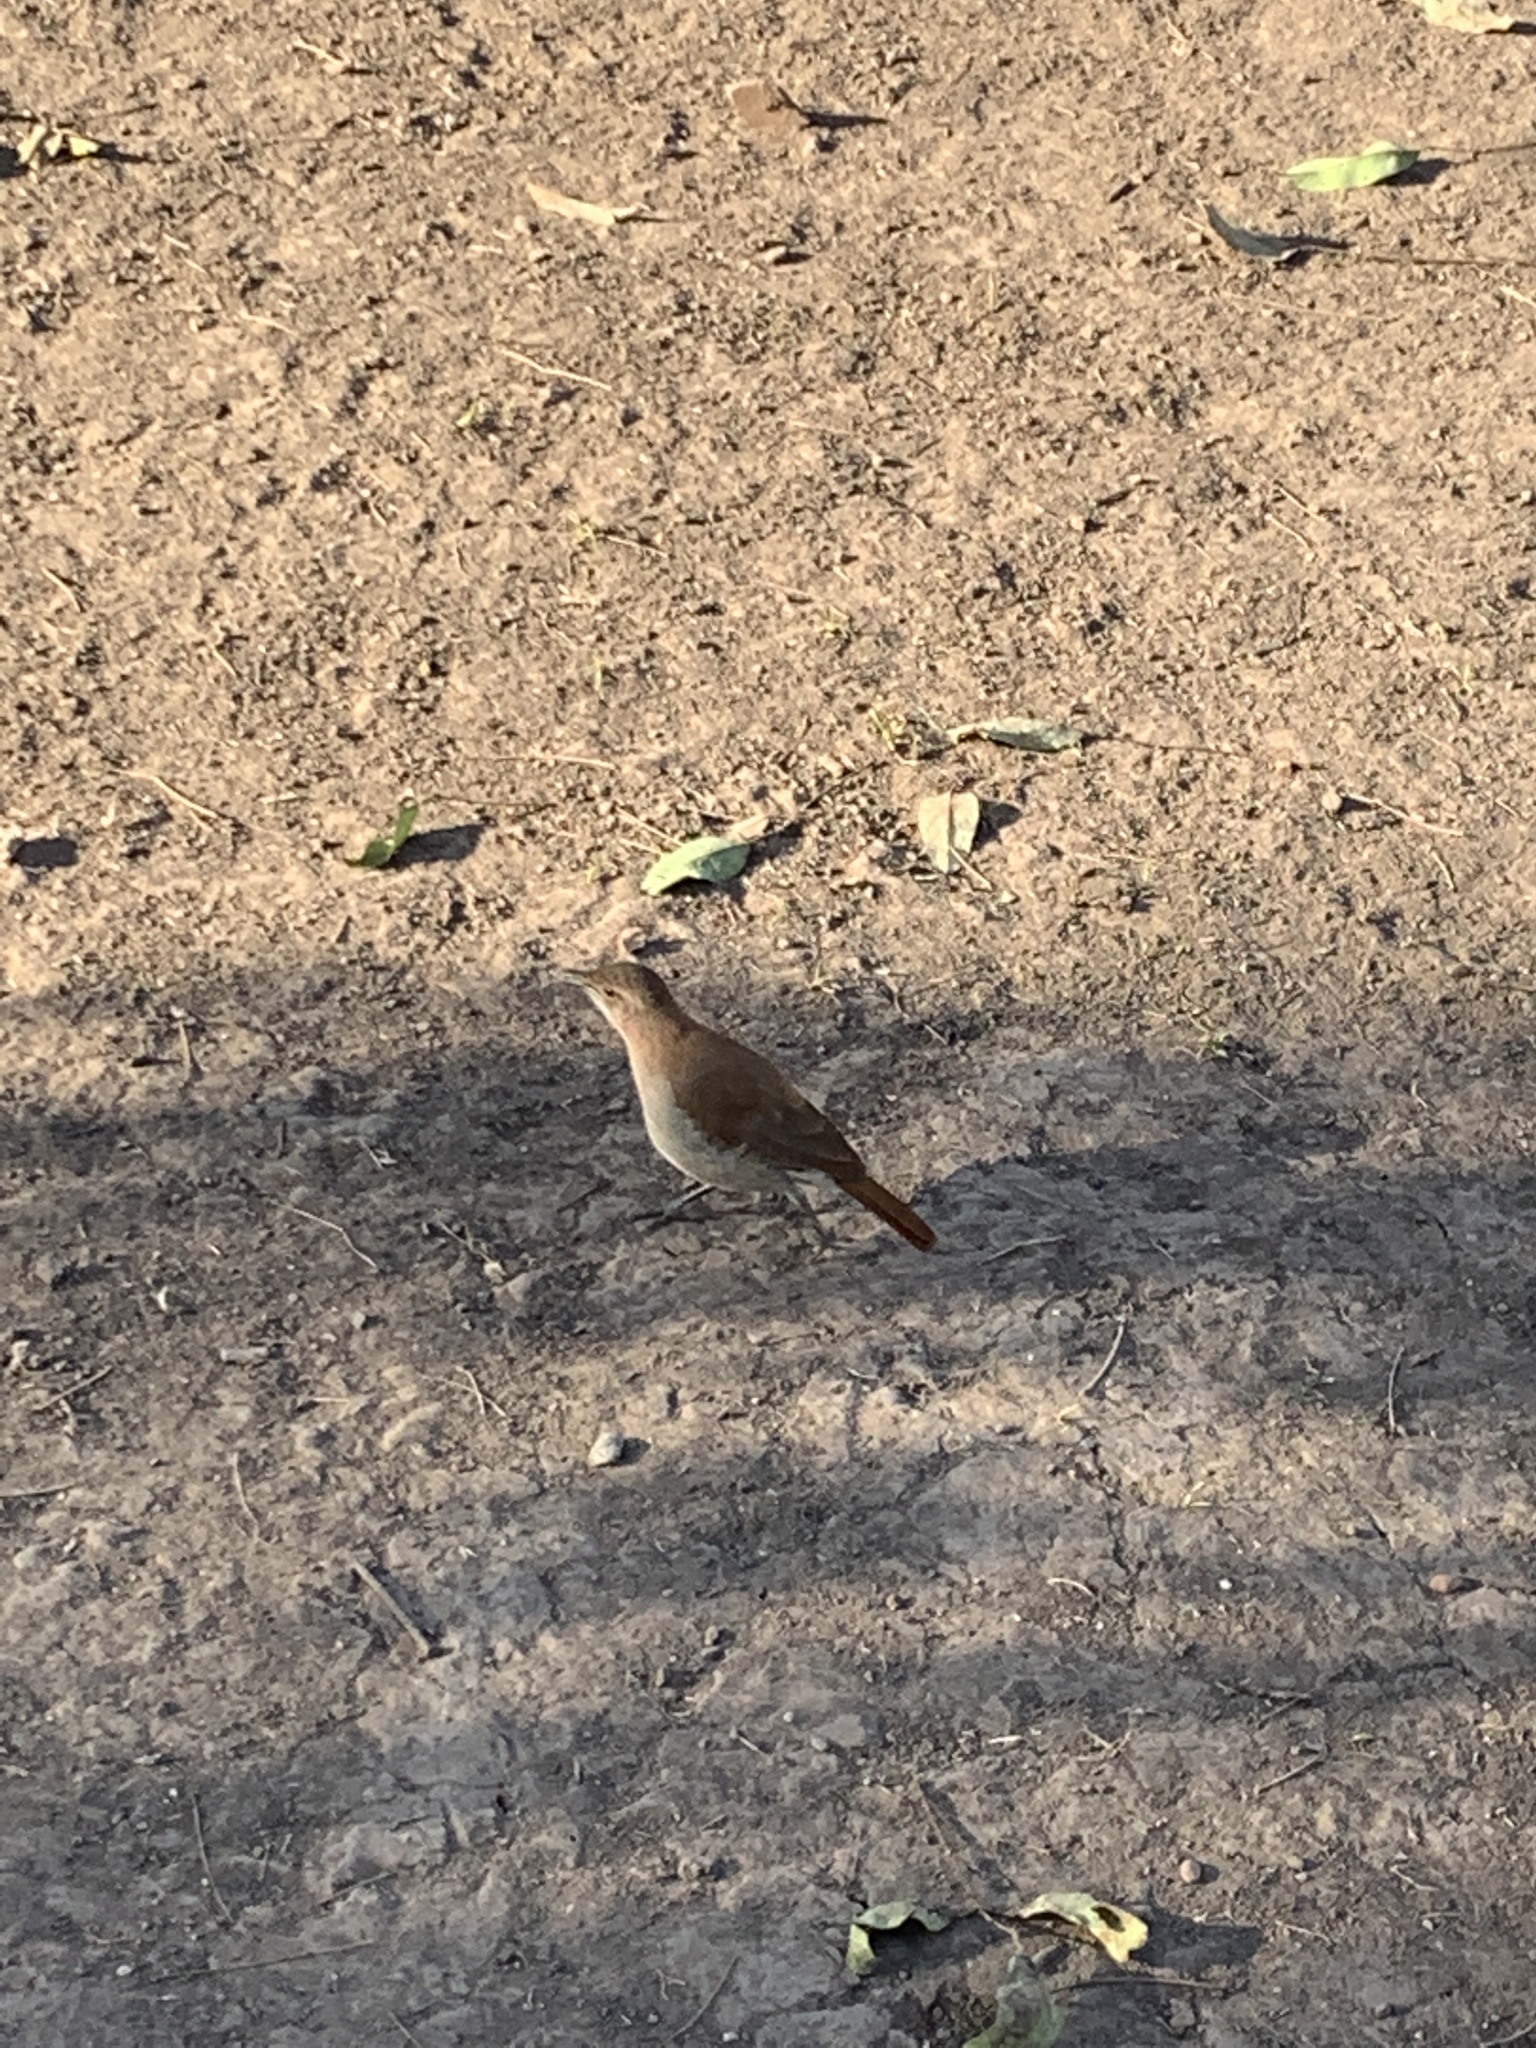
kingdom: Animalia
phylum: Chordata
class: Aves
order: Passeriformes
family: Furnariidae
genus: Furnarius
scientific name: Furnarius rufus
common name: Rufous hornero
